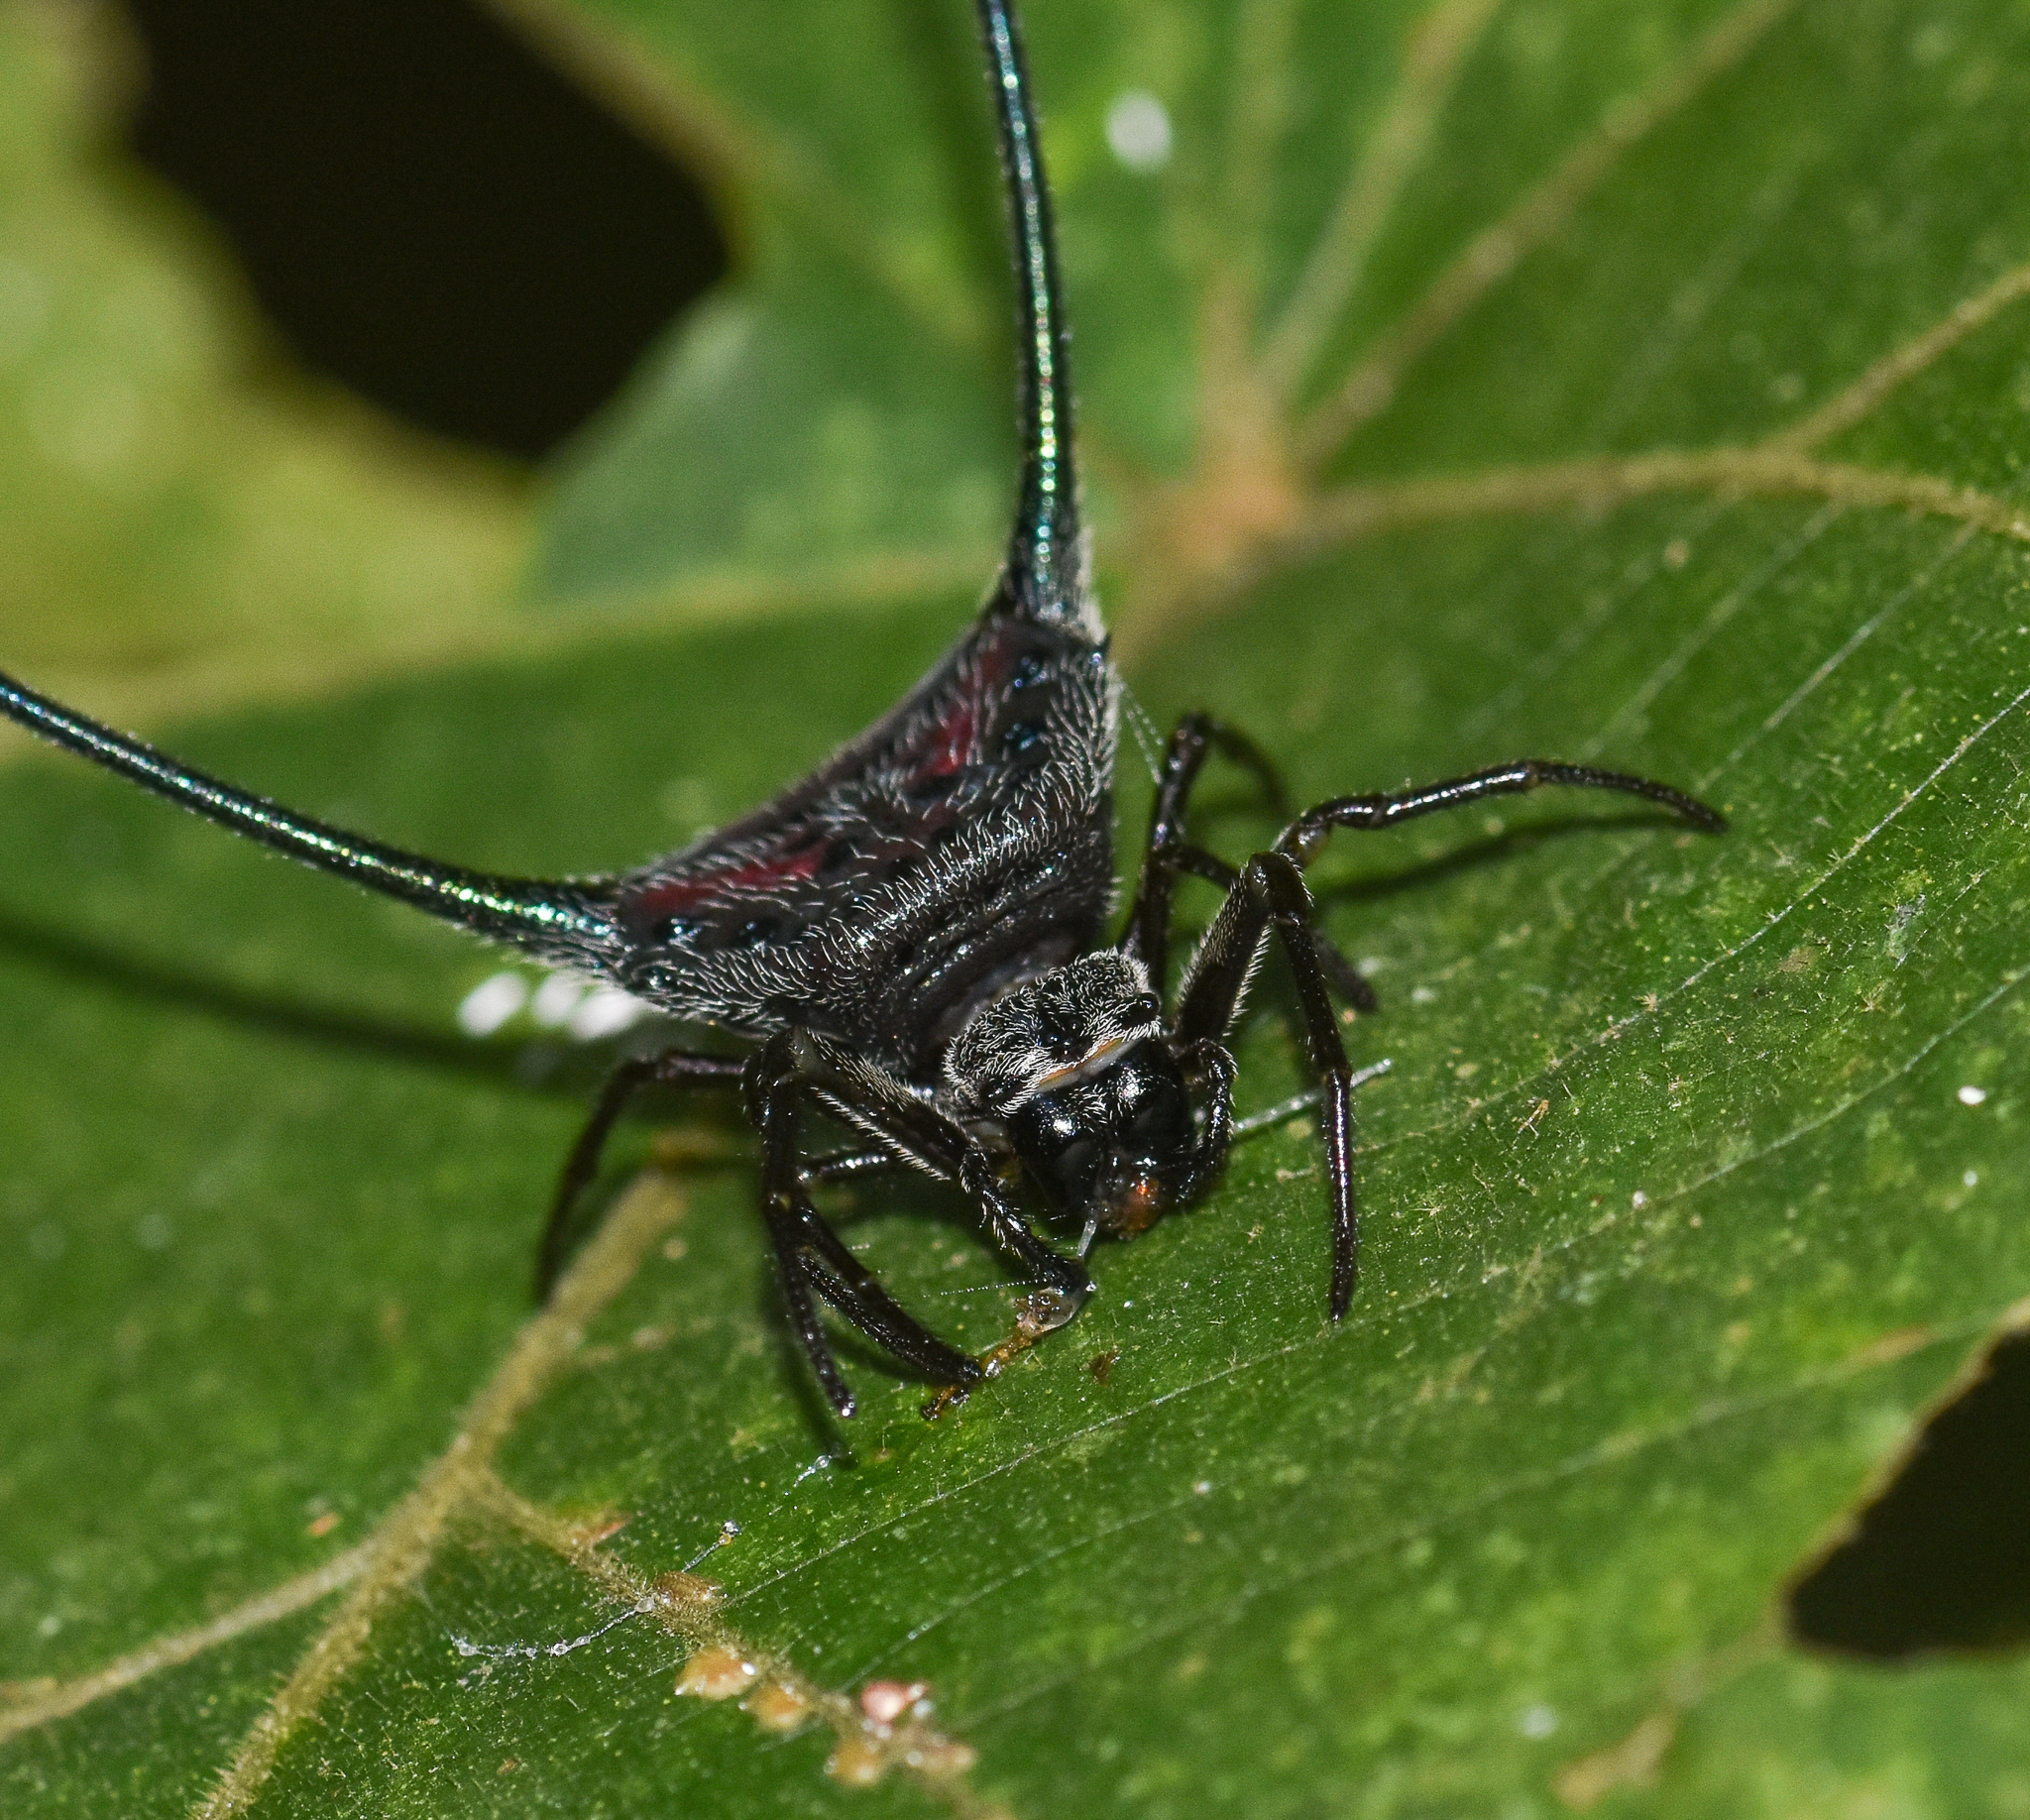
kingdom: Animalia
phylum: Arthropoda
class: Arachnida
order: Araneae
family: Araneidae
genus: Macracantha
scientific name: Macracantha arcuata
